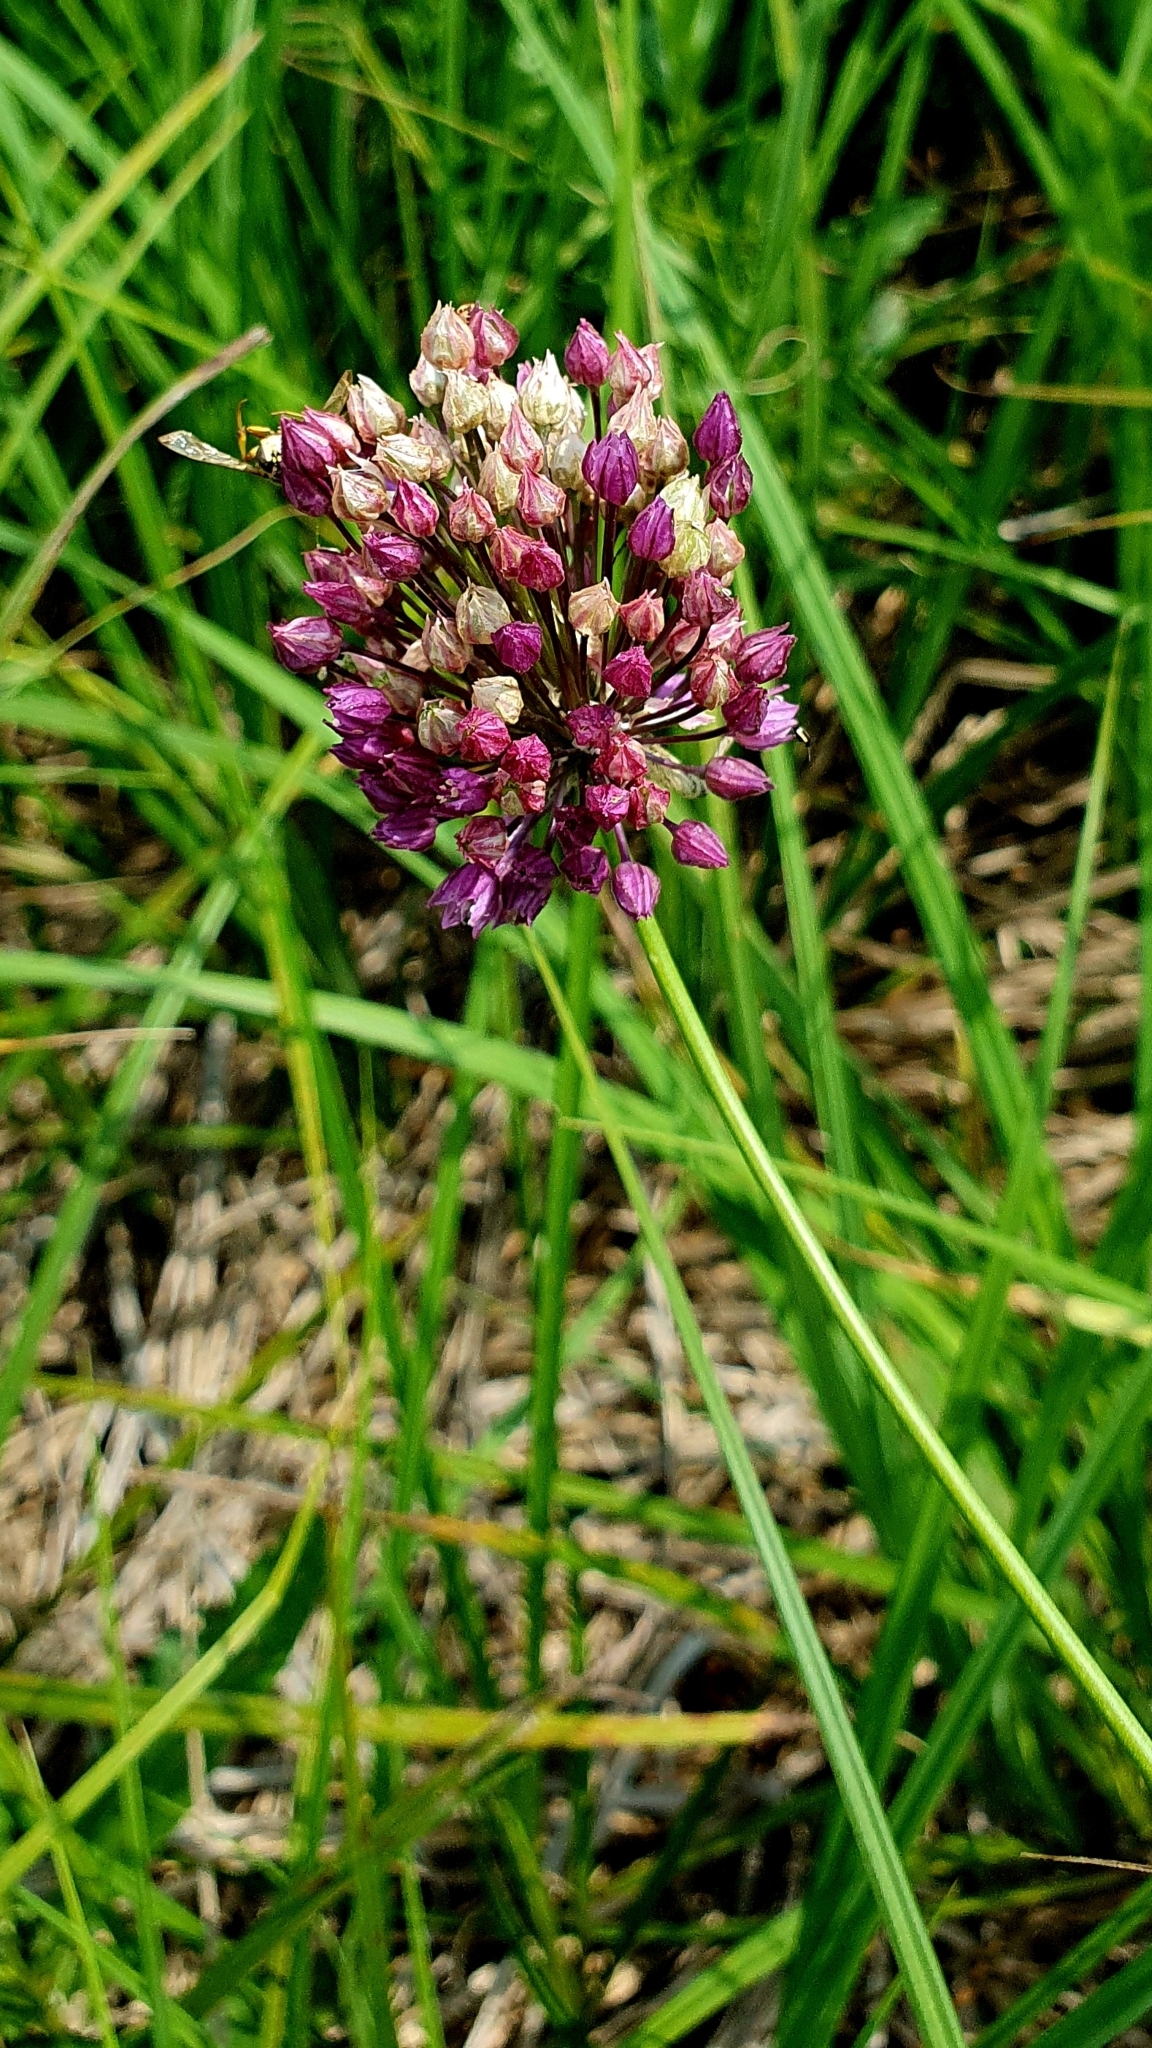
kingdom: Plantae
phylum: Tracheophyta
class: Liliopsida
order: Asparagales
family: Amaryllidaceae
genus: Allium
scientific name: Allium rotundum
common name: Sand leek
